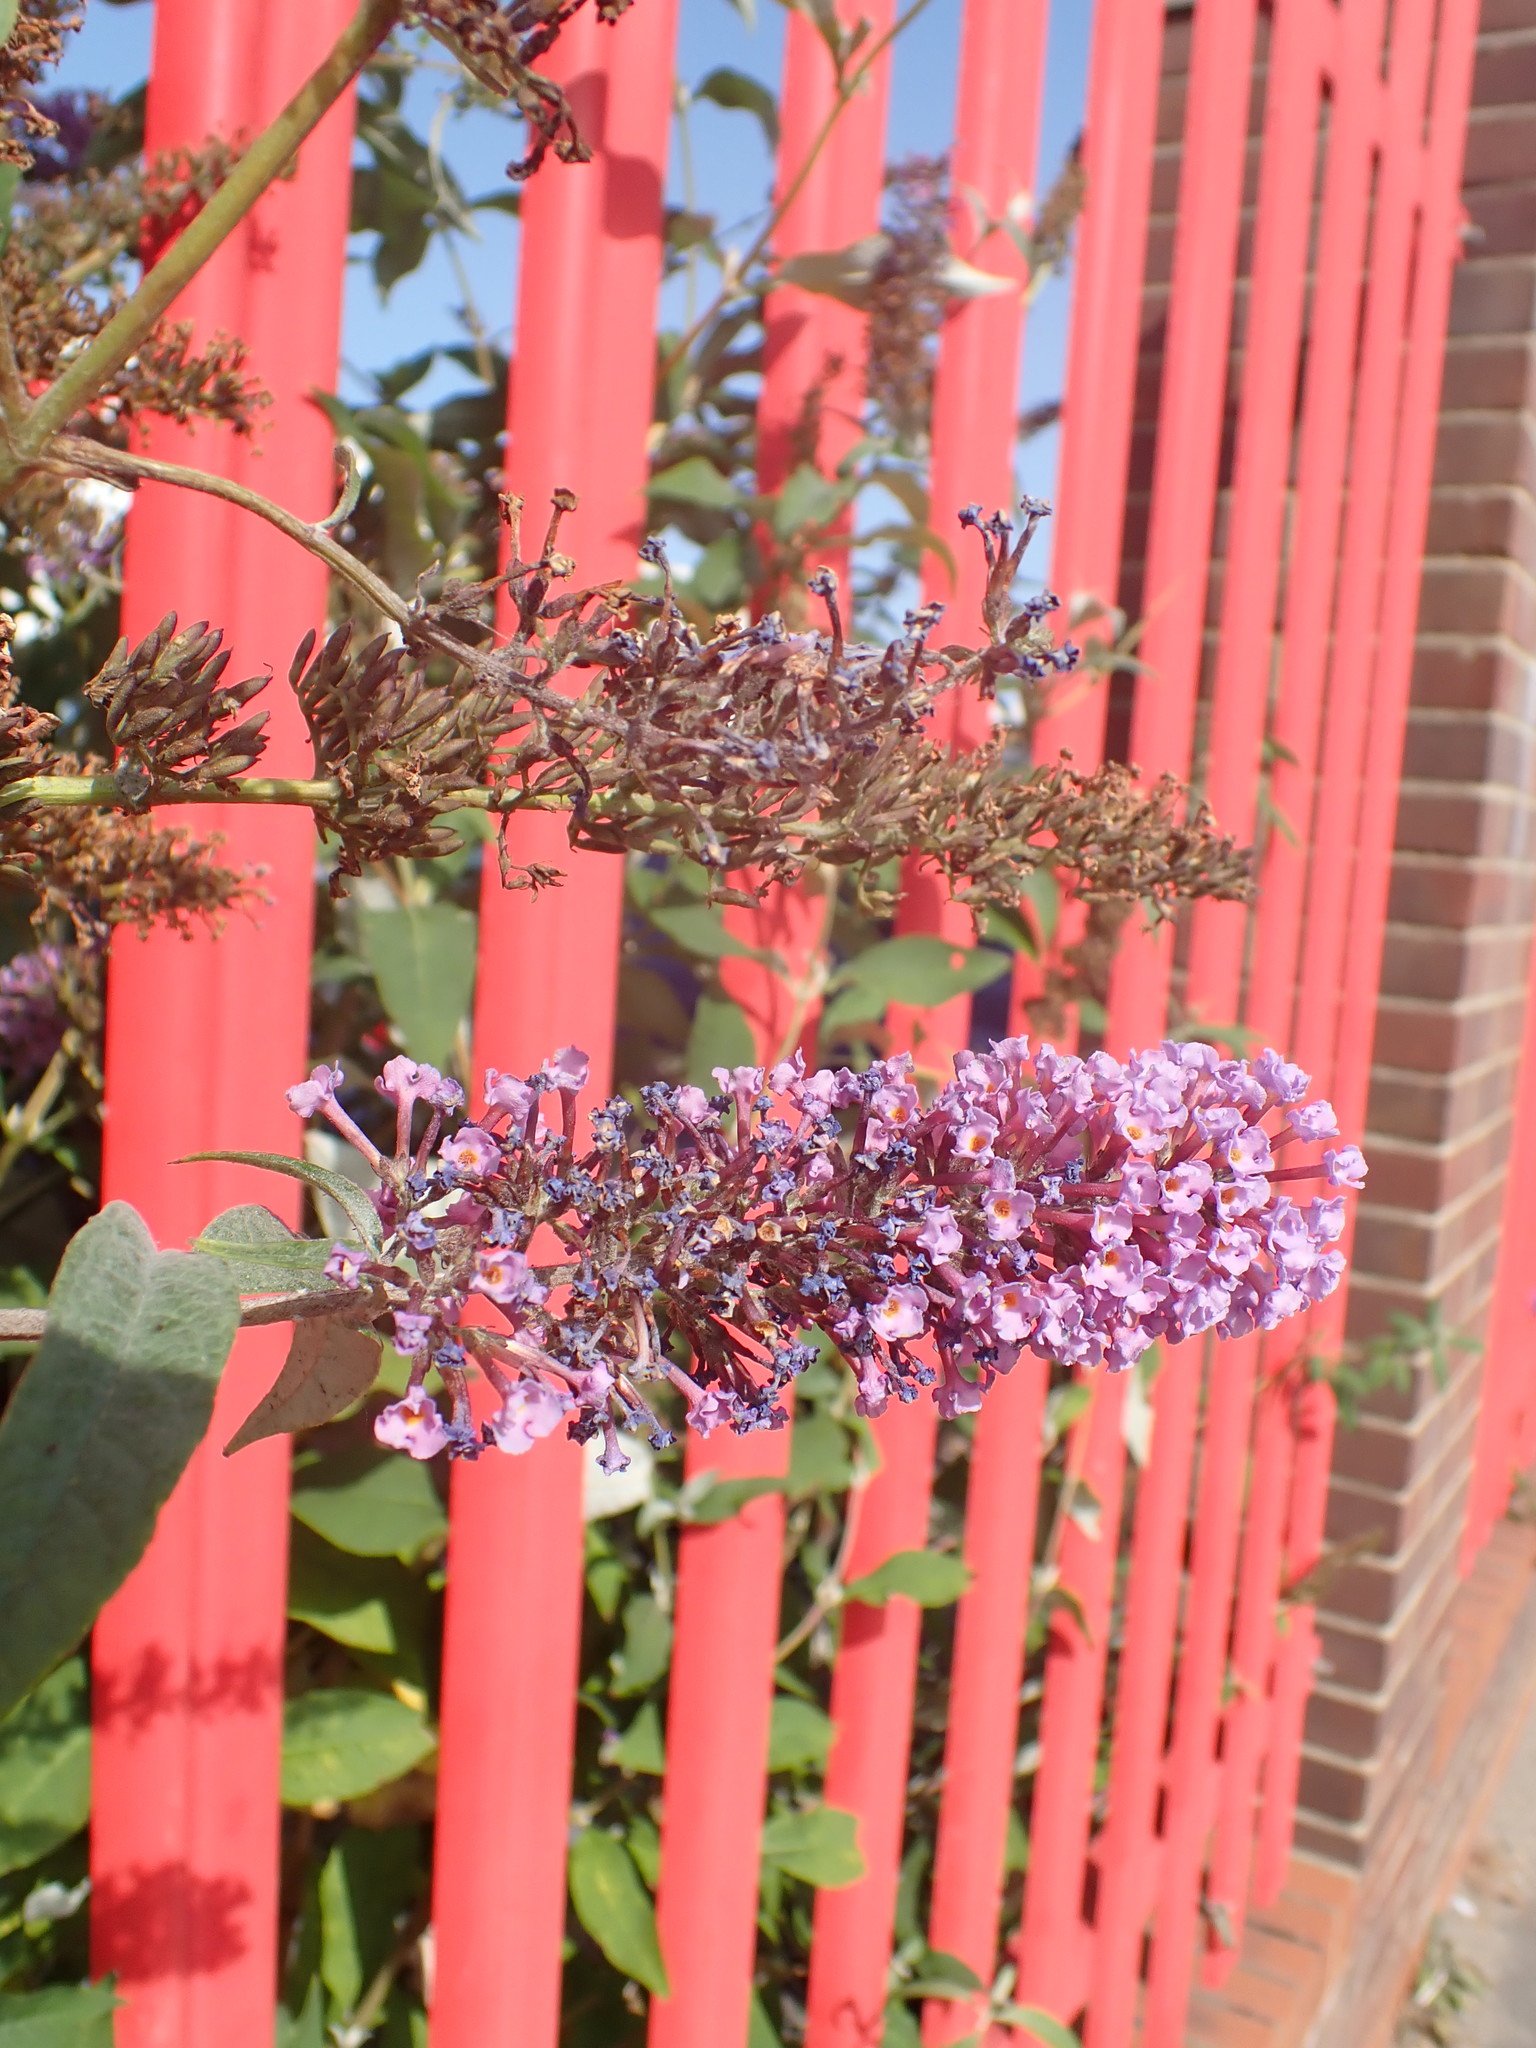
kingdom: Plantae
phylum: Tracheophyta
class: Magnoliopsida
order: Lamiales
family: Scrophulariaceae
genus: Buddleja
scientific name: Buddleja davidii
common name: Butterfly-bush
